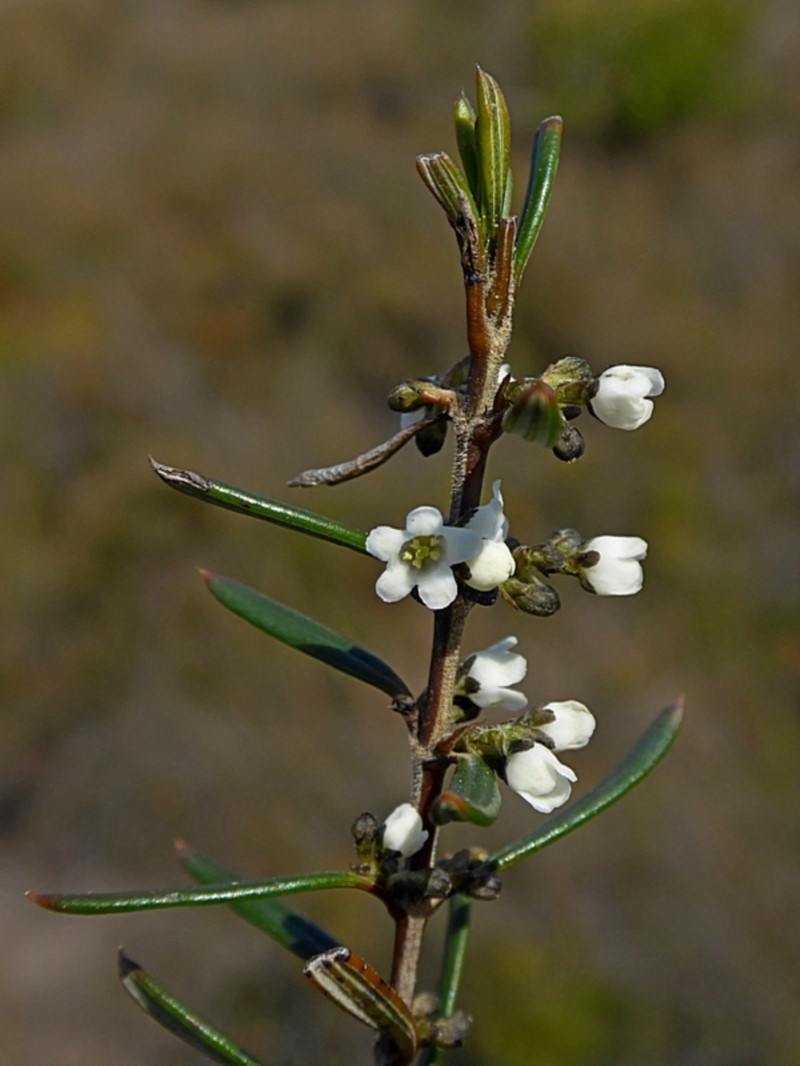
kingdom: Plantae
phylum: Tracheophyta
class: Magnoliopsida
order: Gentianales
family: Loganiaceae
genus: Logania
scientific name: Logania albiflora
